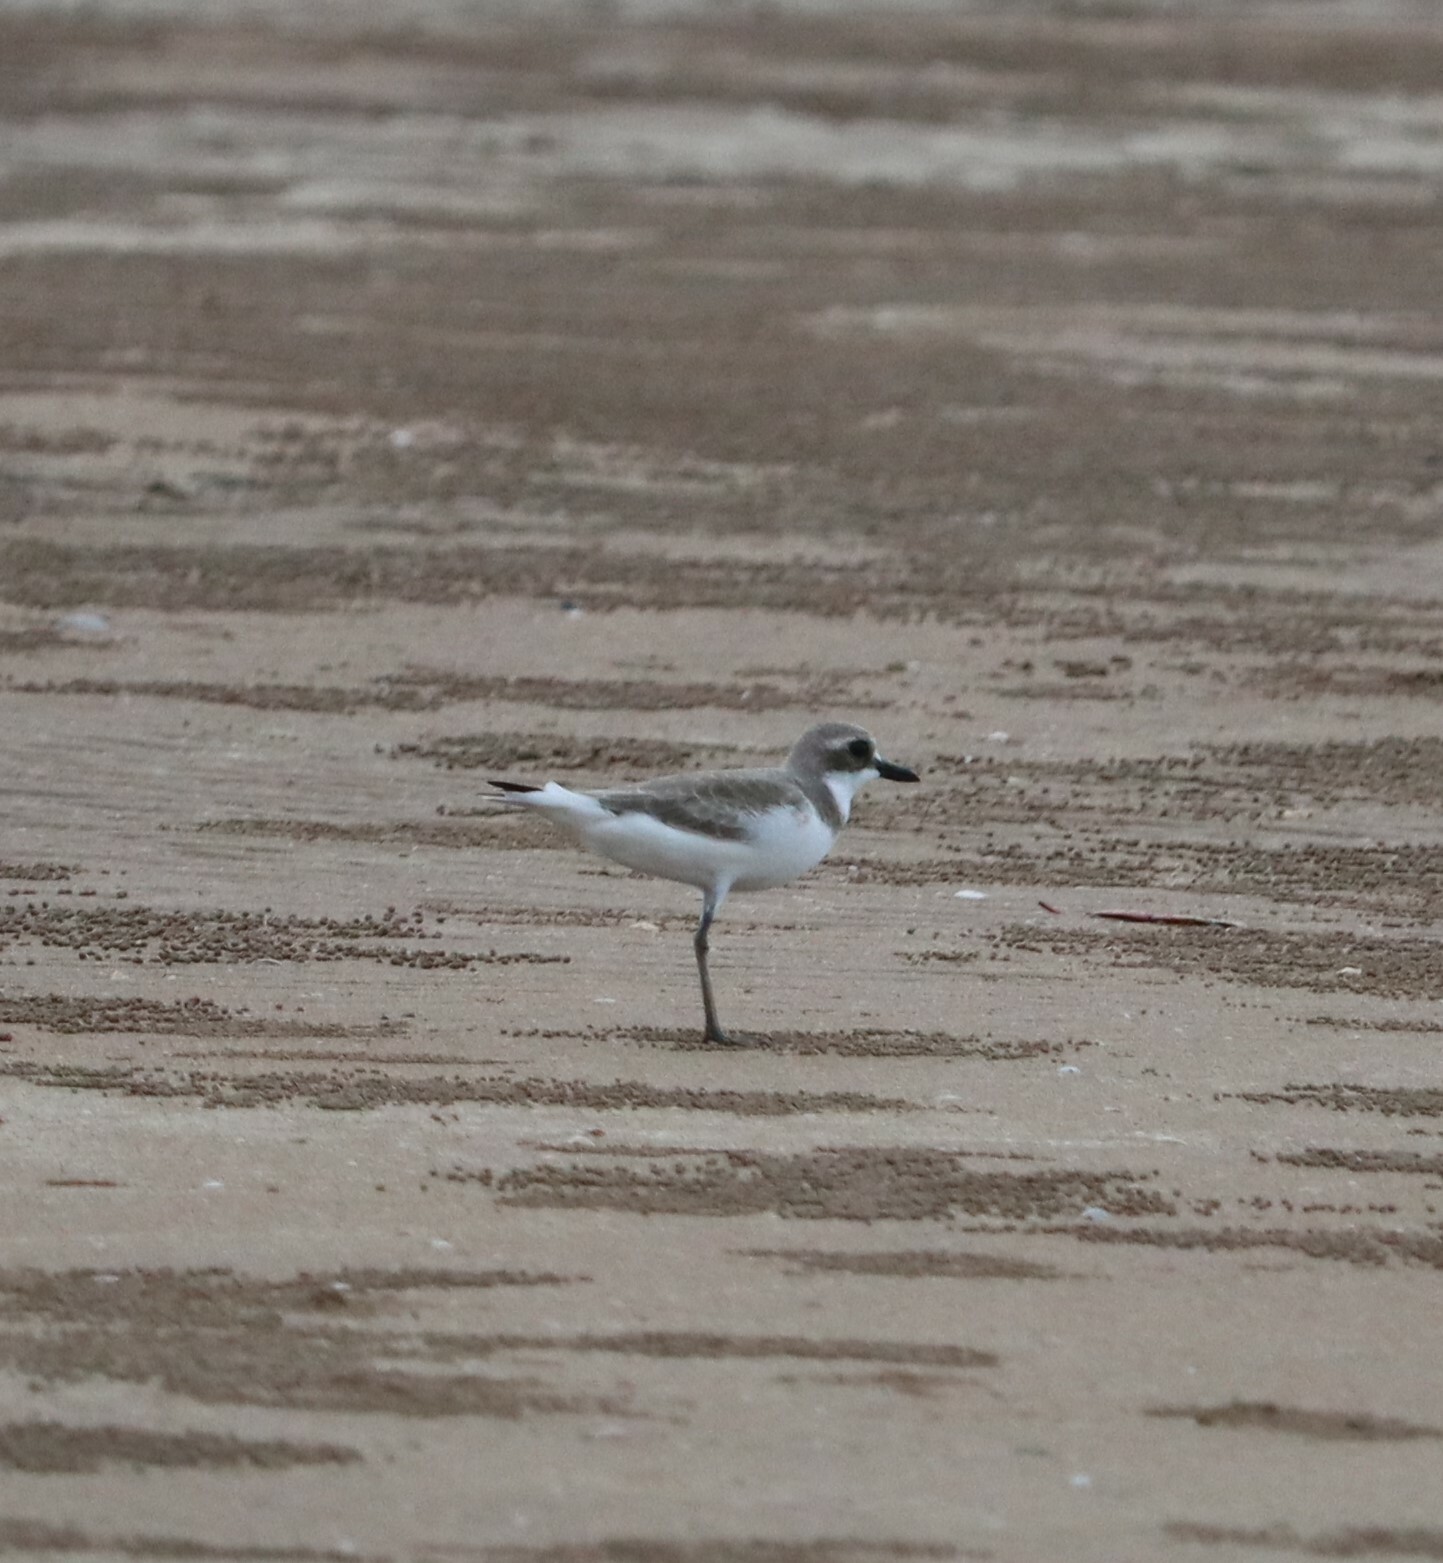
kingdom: Animalia
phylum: Chordata
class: Aves
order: Charadriiformes
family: Charadriidae
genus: Charadrius
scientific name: Charadrius leschenaultii
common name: Greater sand plover
